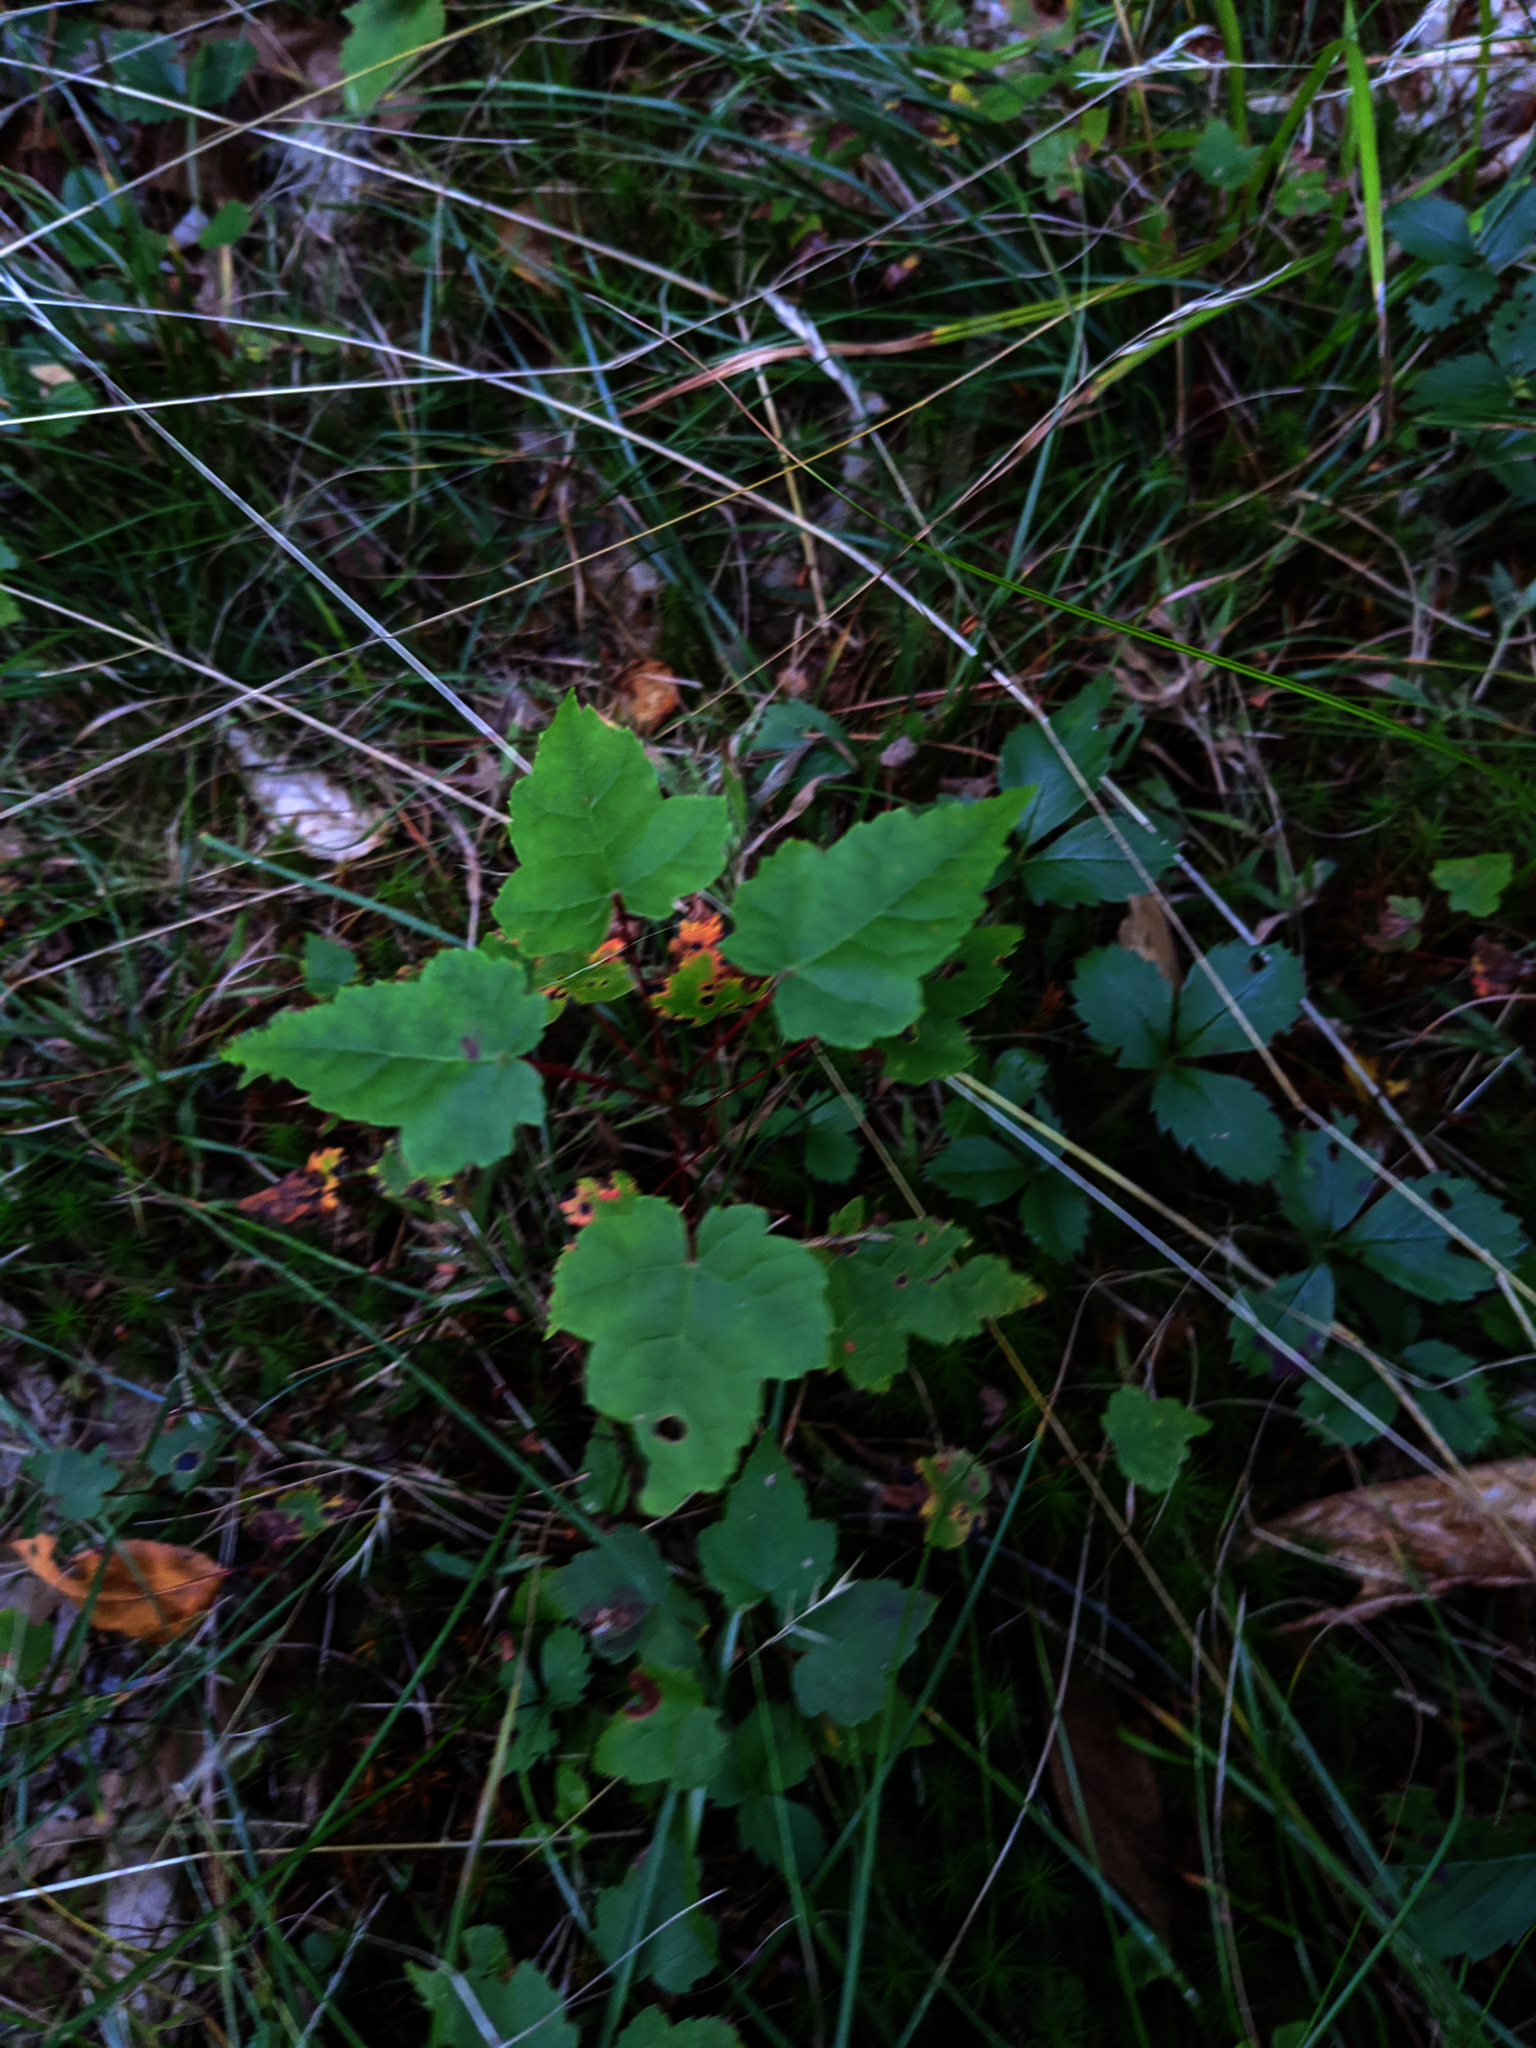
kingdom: Plantae
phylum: Tracheophyta
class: Magnoliopsida
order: Sapindales
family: Sapindaceae
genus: Acer
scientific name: Acer rubrum
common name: Red maple
